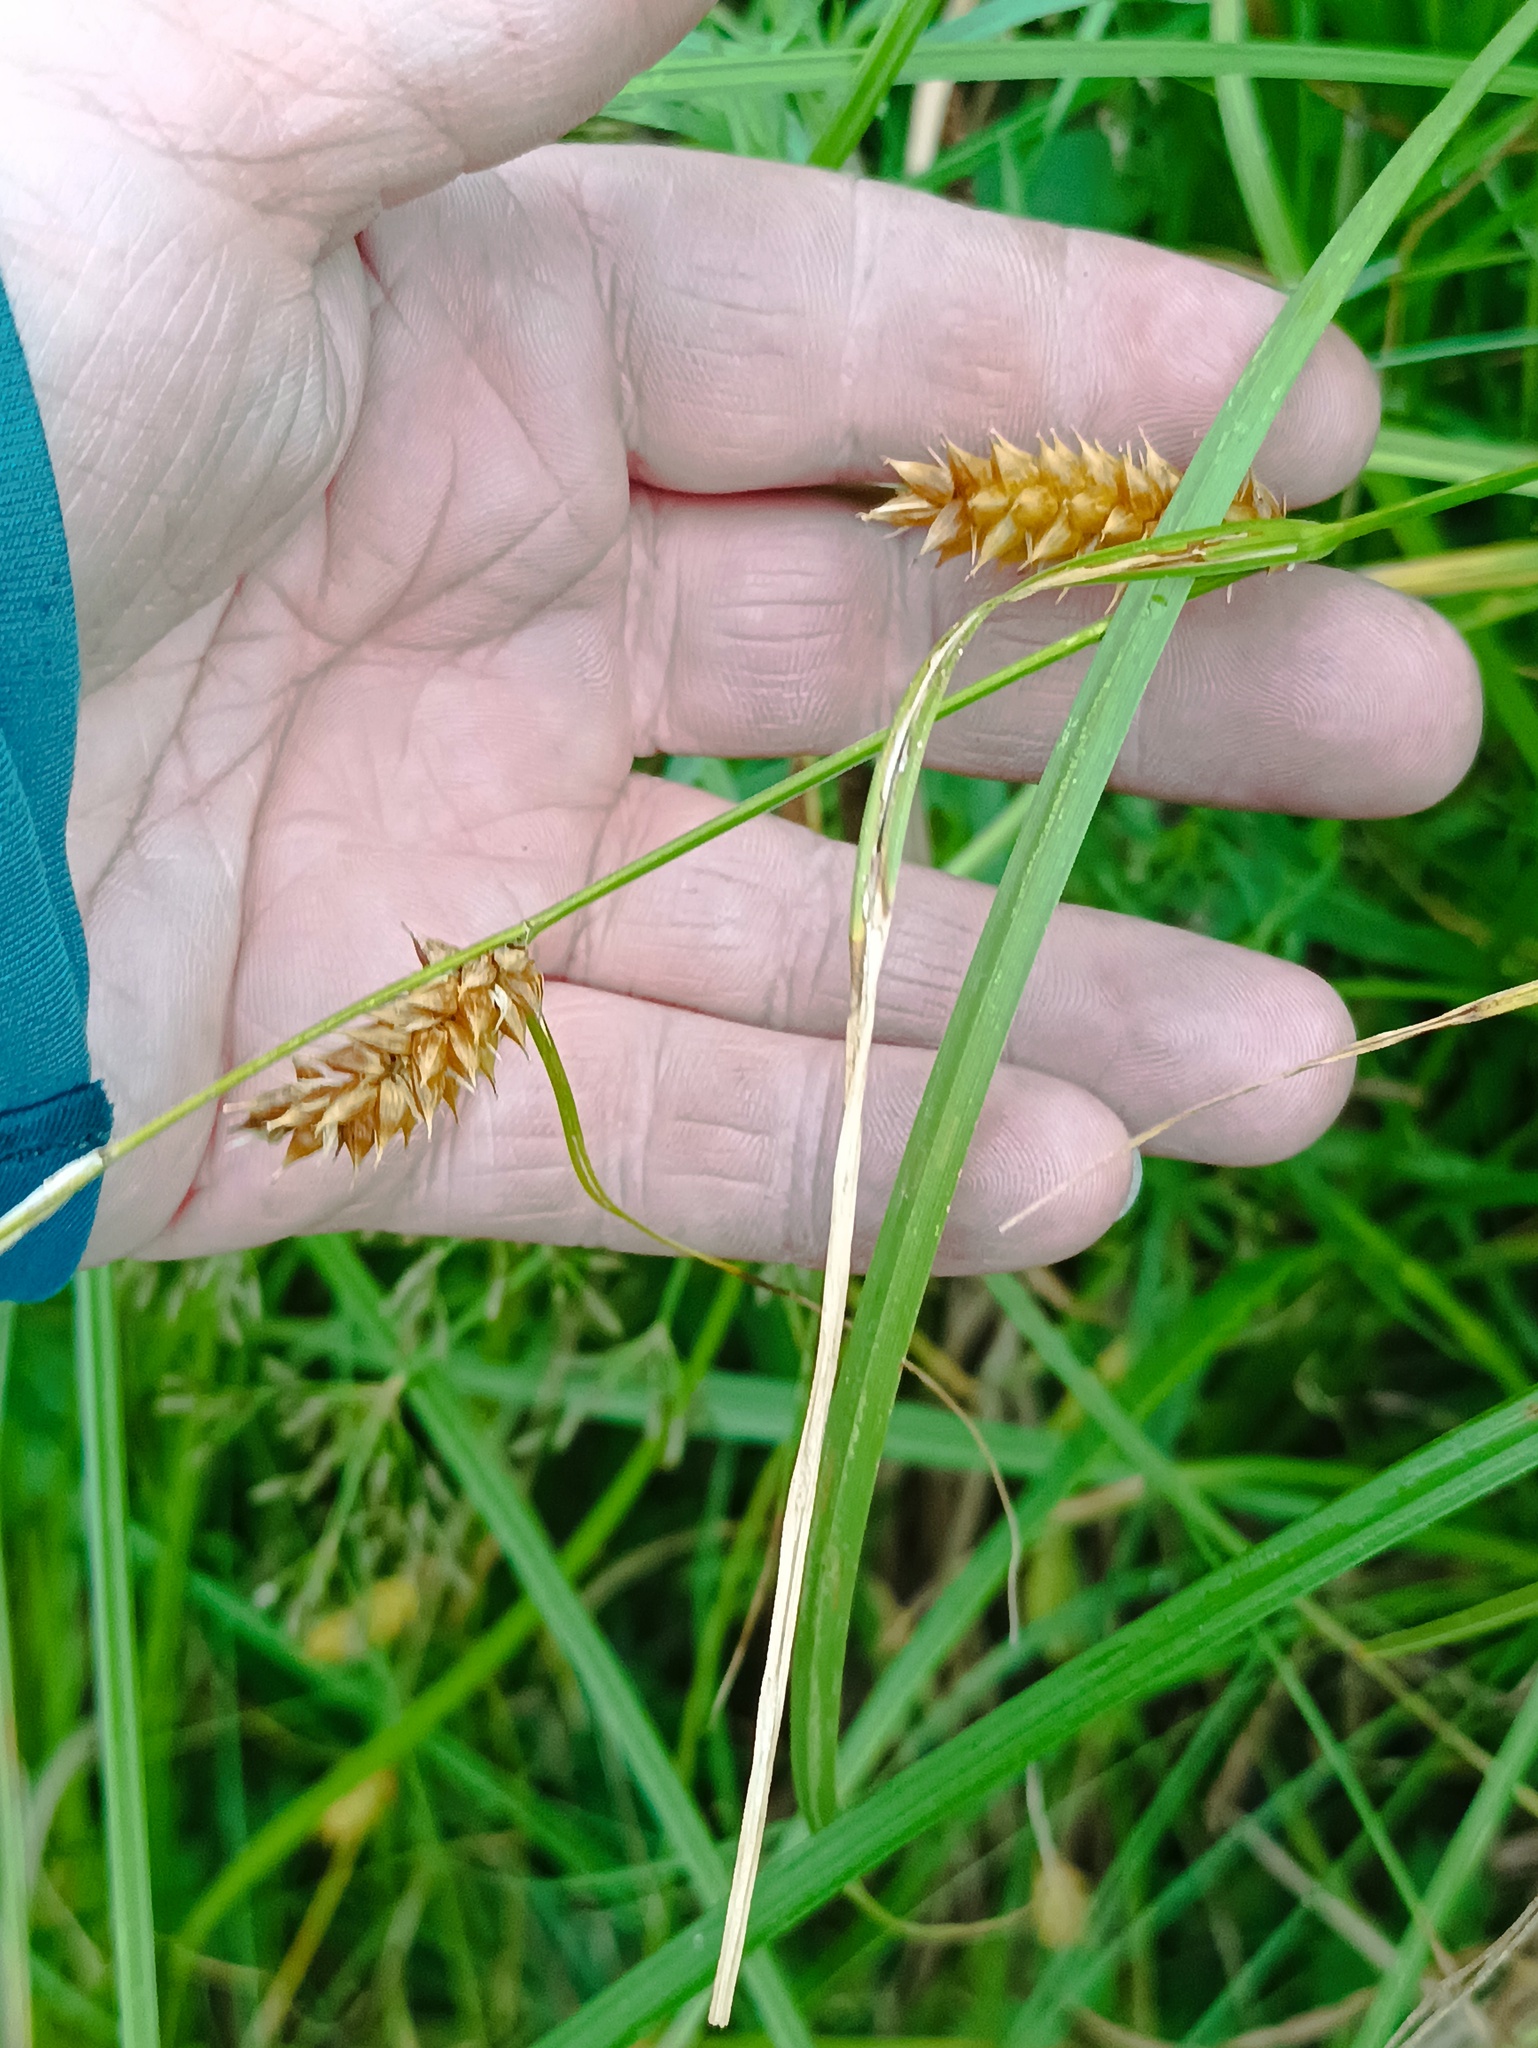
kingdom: Plantae
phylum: Tracheophyta
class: Liliopsida
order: Poales
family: Cyperaceae
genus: Carex
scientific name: Carex vesicaria
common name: Bladder-sedge
